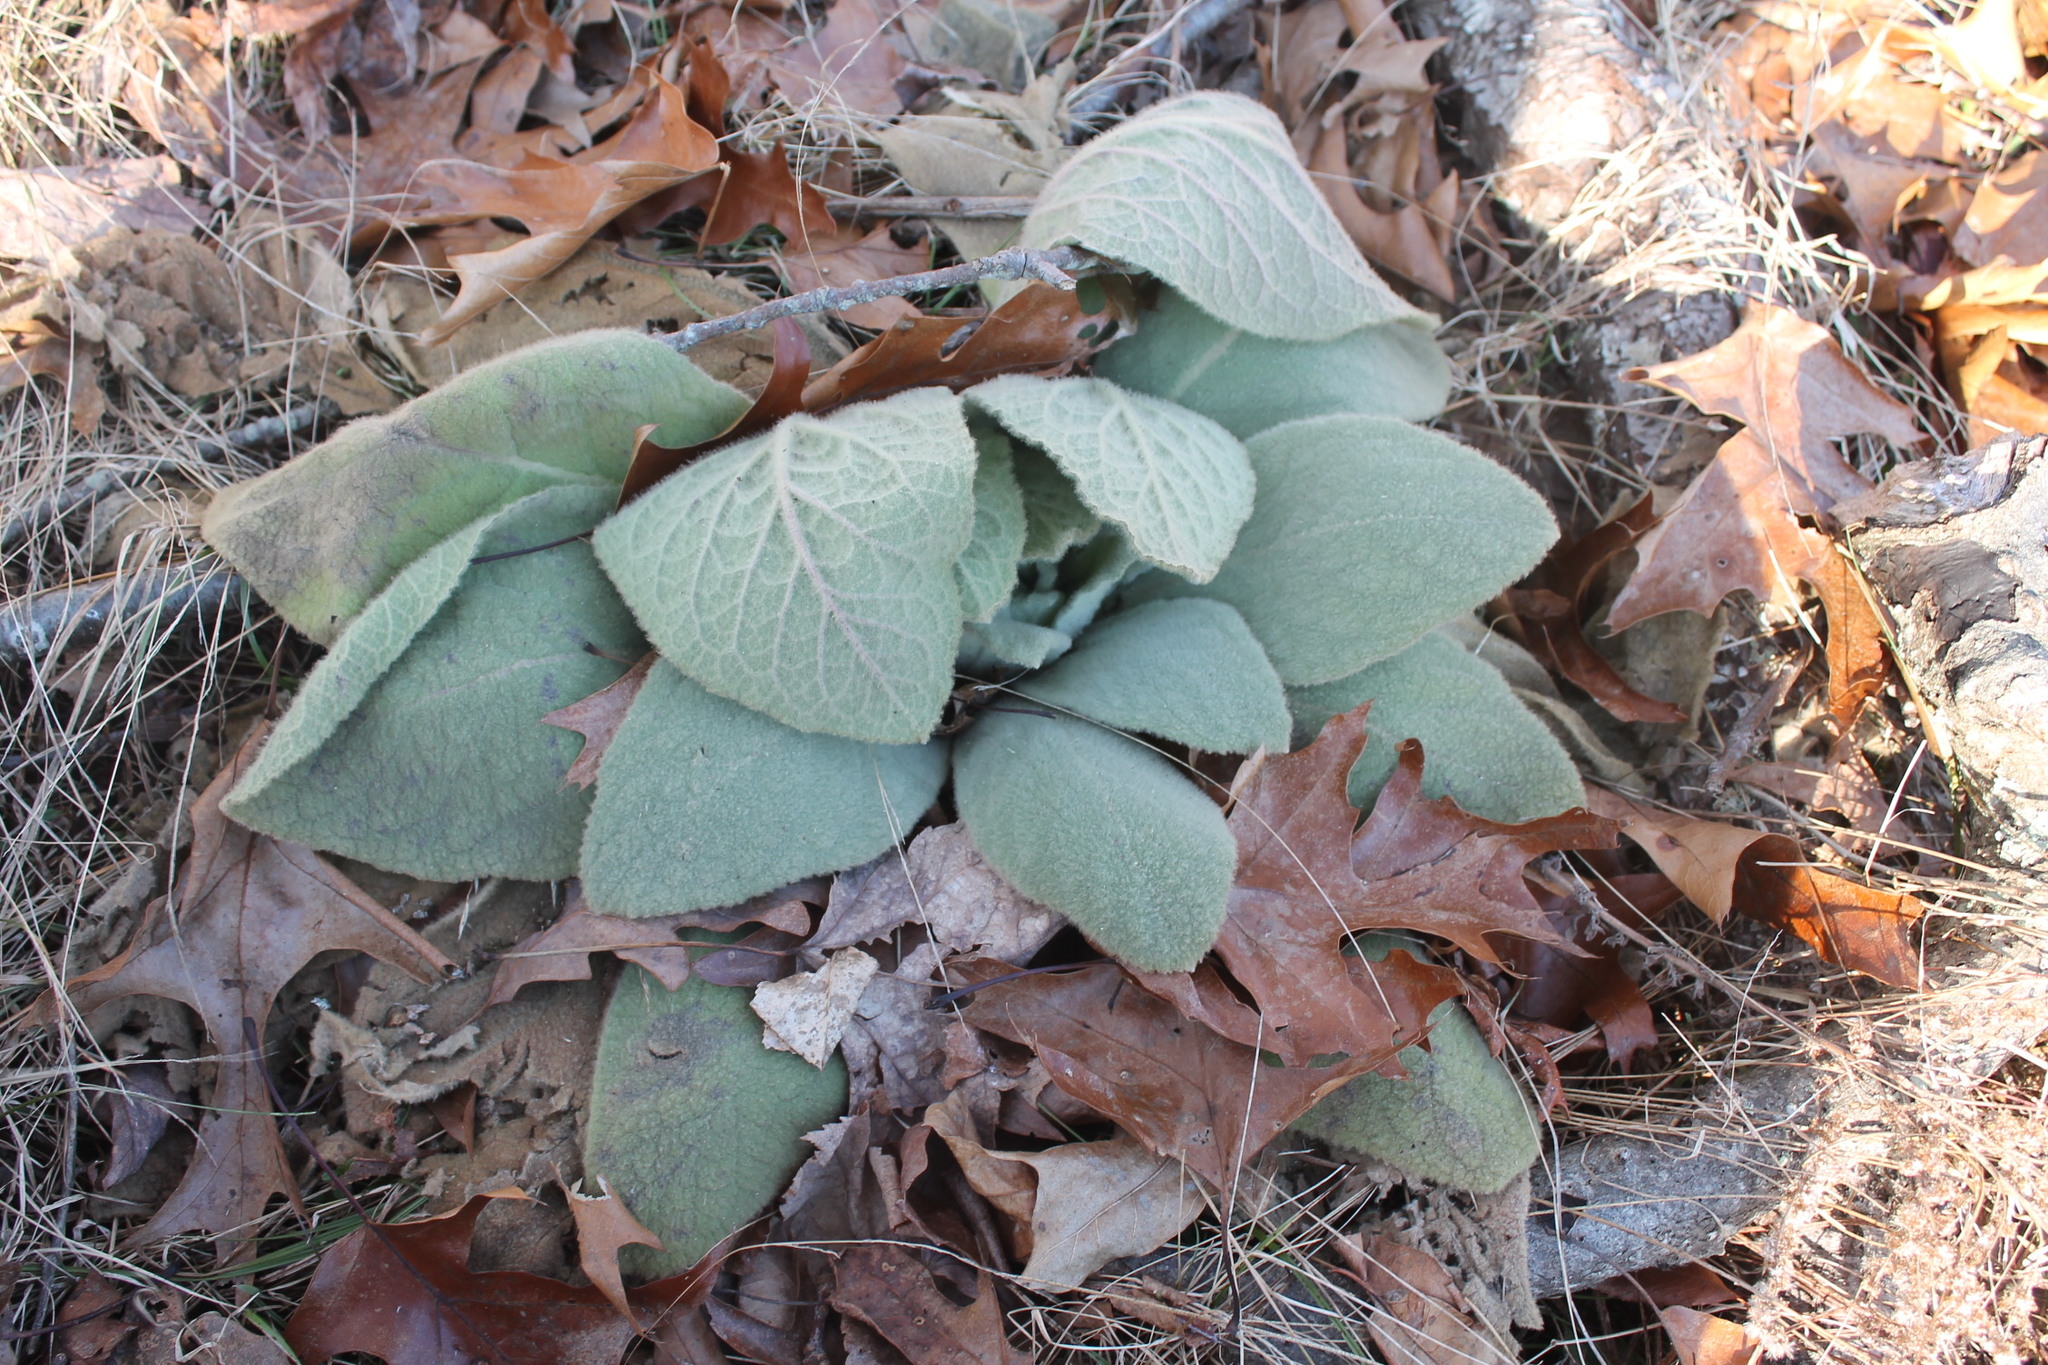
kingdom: Plantae
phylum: Tracheophyta
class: Magnoliopsida
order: Lamiales
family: Scrophulariaceae
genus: Verbascum
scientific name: Verbascum thapsus
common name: Common mullein
